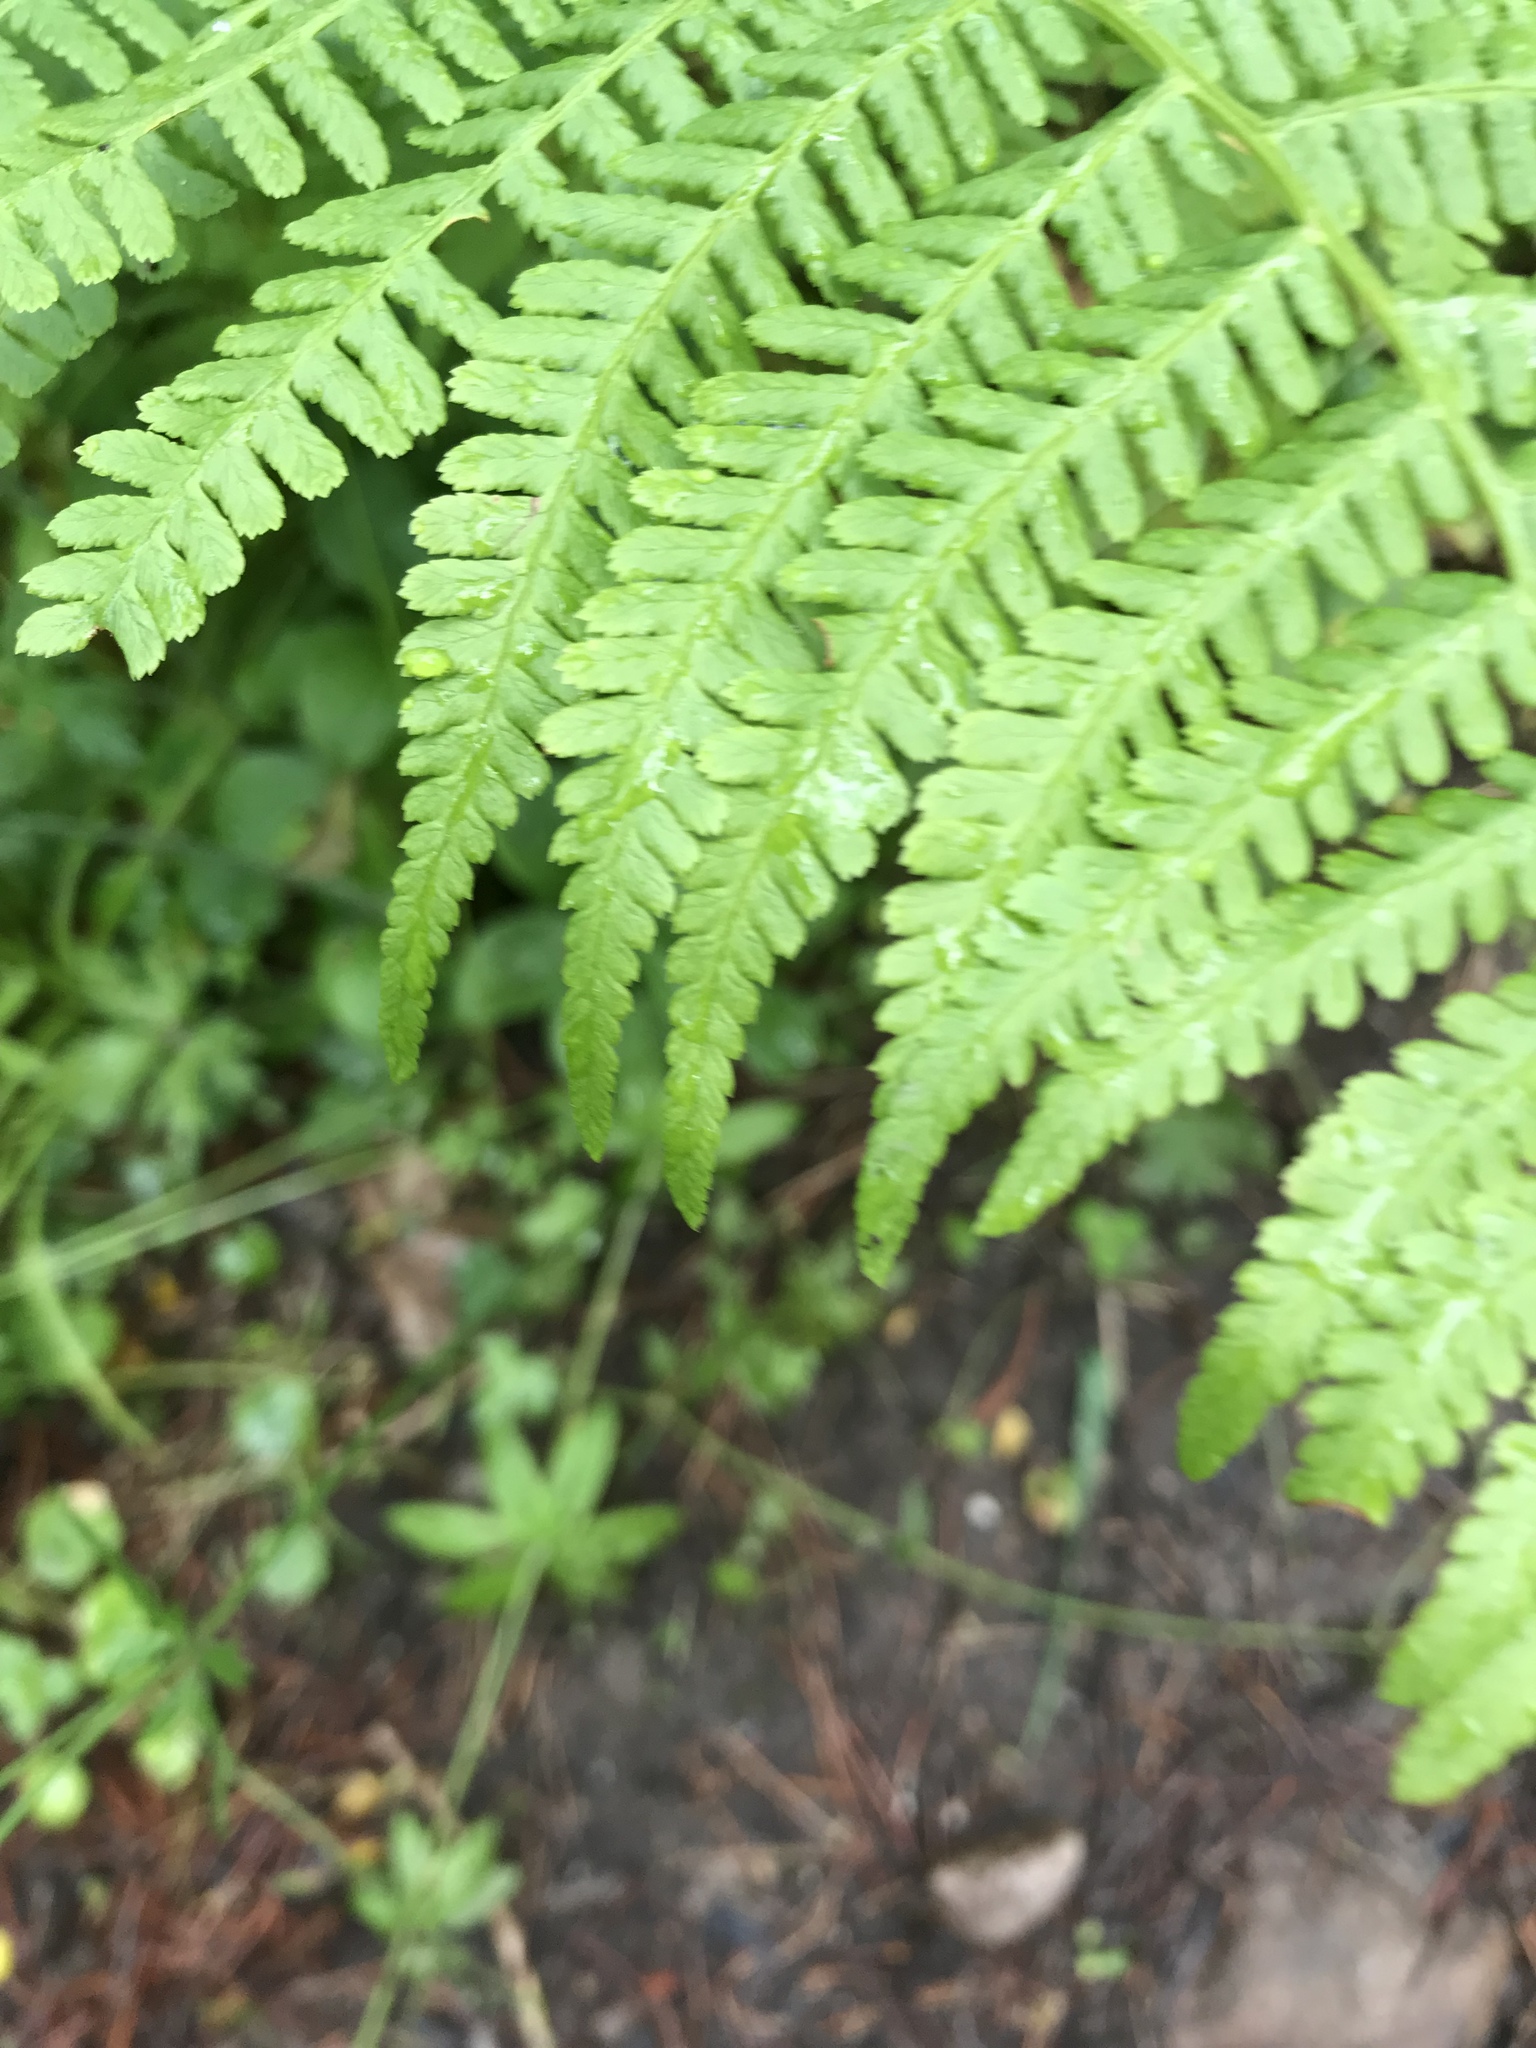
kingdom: Plantae
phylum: Tracheophyta
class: Polypodiopsida
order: Polypodiales
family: Athyriaceae
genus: Athyrium
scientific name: Athyrium filix-femina
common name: Lady fern
